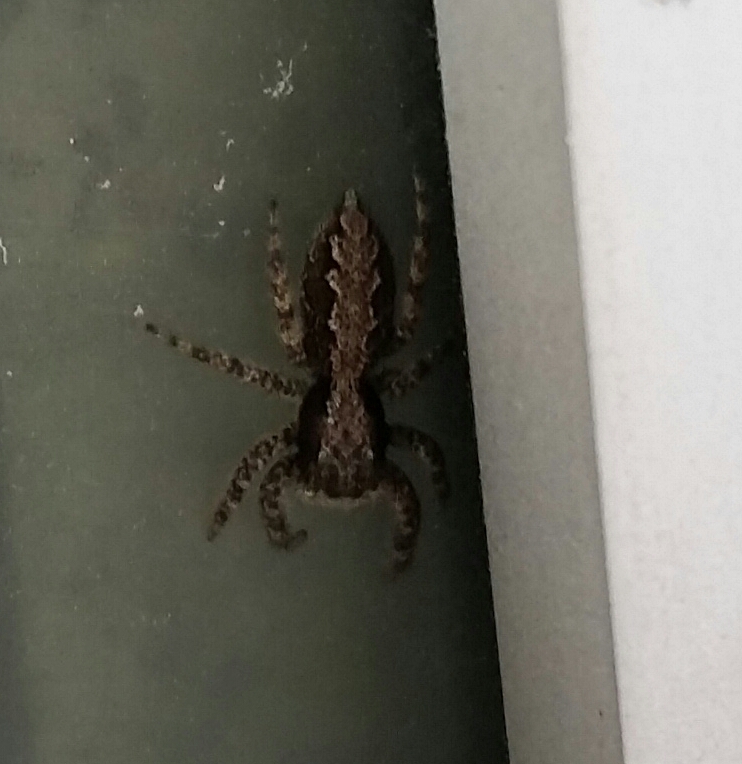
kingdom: Animalia
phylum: Arthropoda
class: Arachnida
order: Araneae
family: Salticidae
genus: Platycryptus
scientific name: Platycryptus californicus
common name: Jumping spiders
